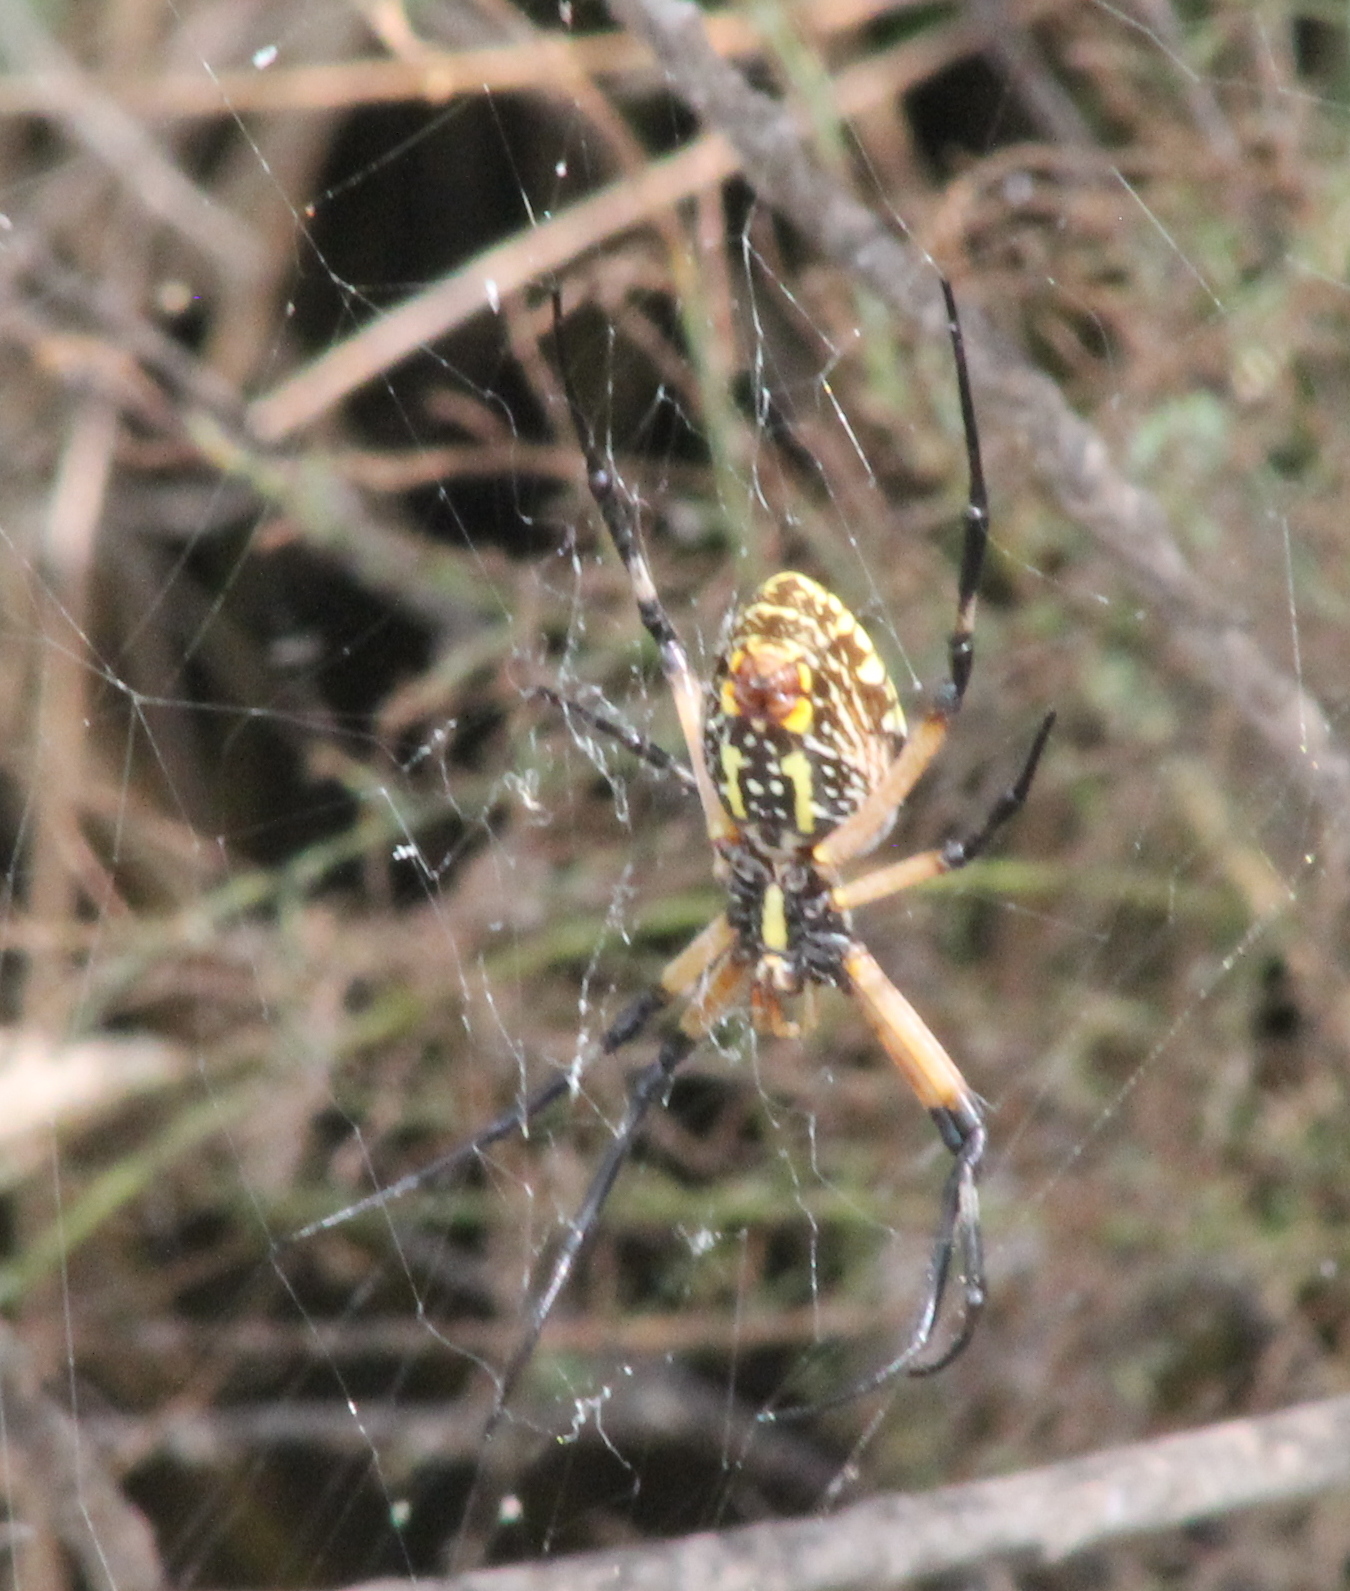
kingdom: Animalia
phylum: Arthropoda
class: Arachnida
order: Araneae
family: Araneidae
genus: Argiope
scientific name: Argiope aurantia
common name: Orb weavers
